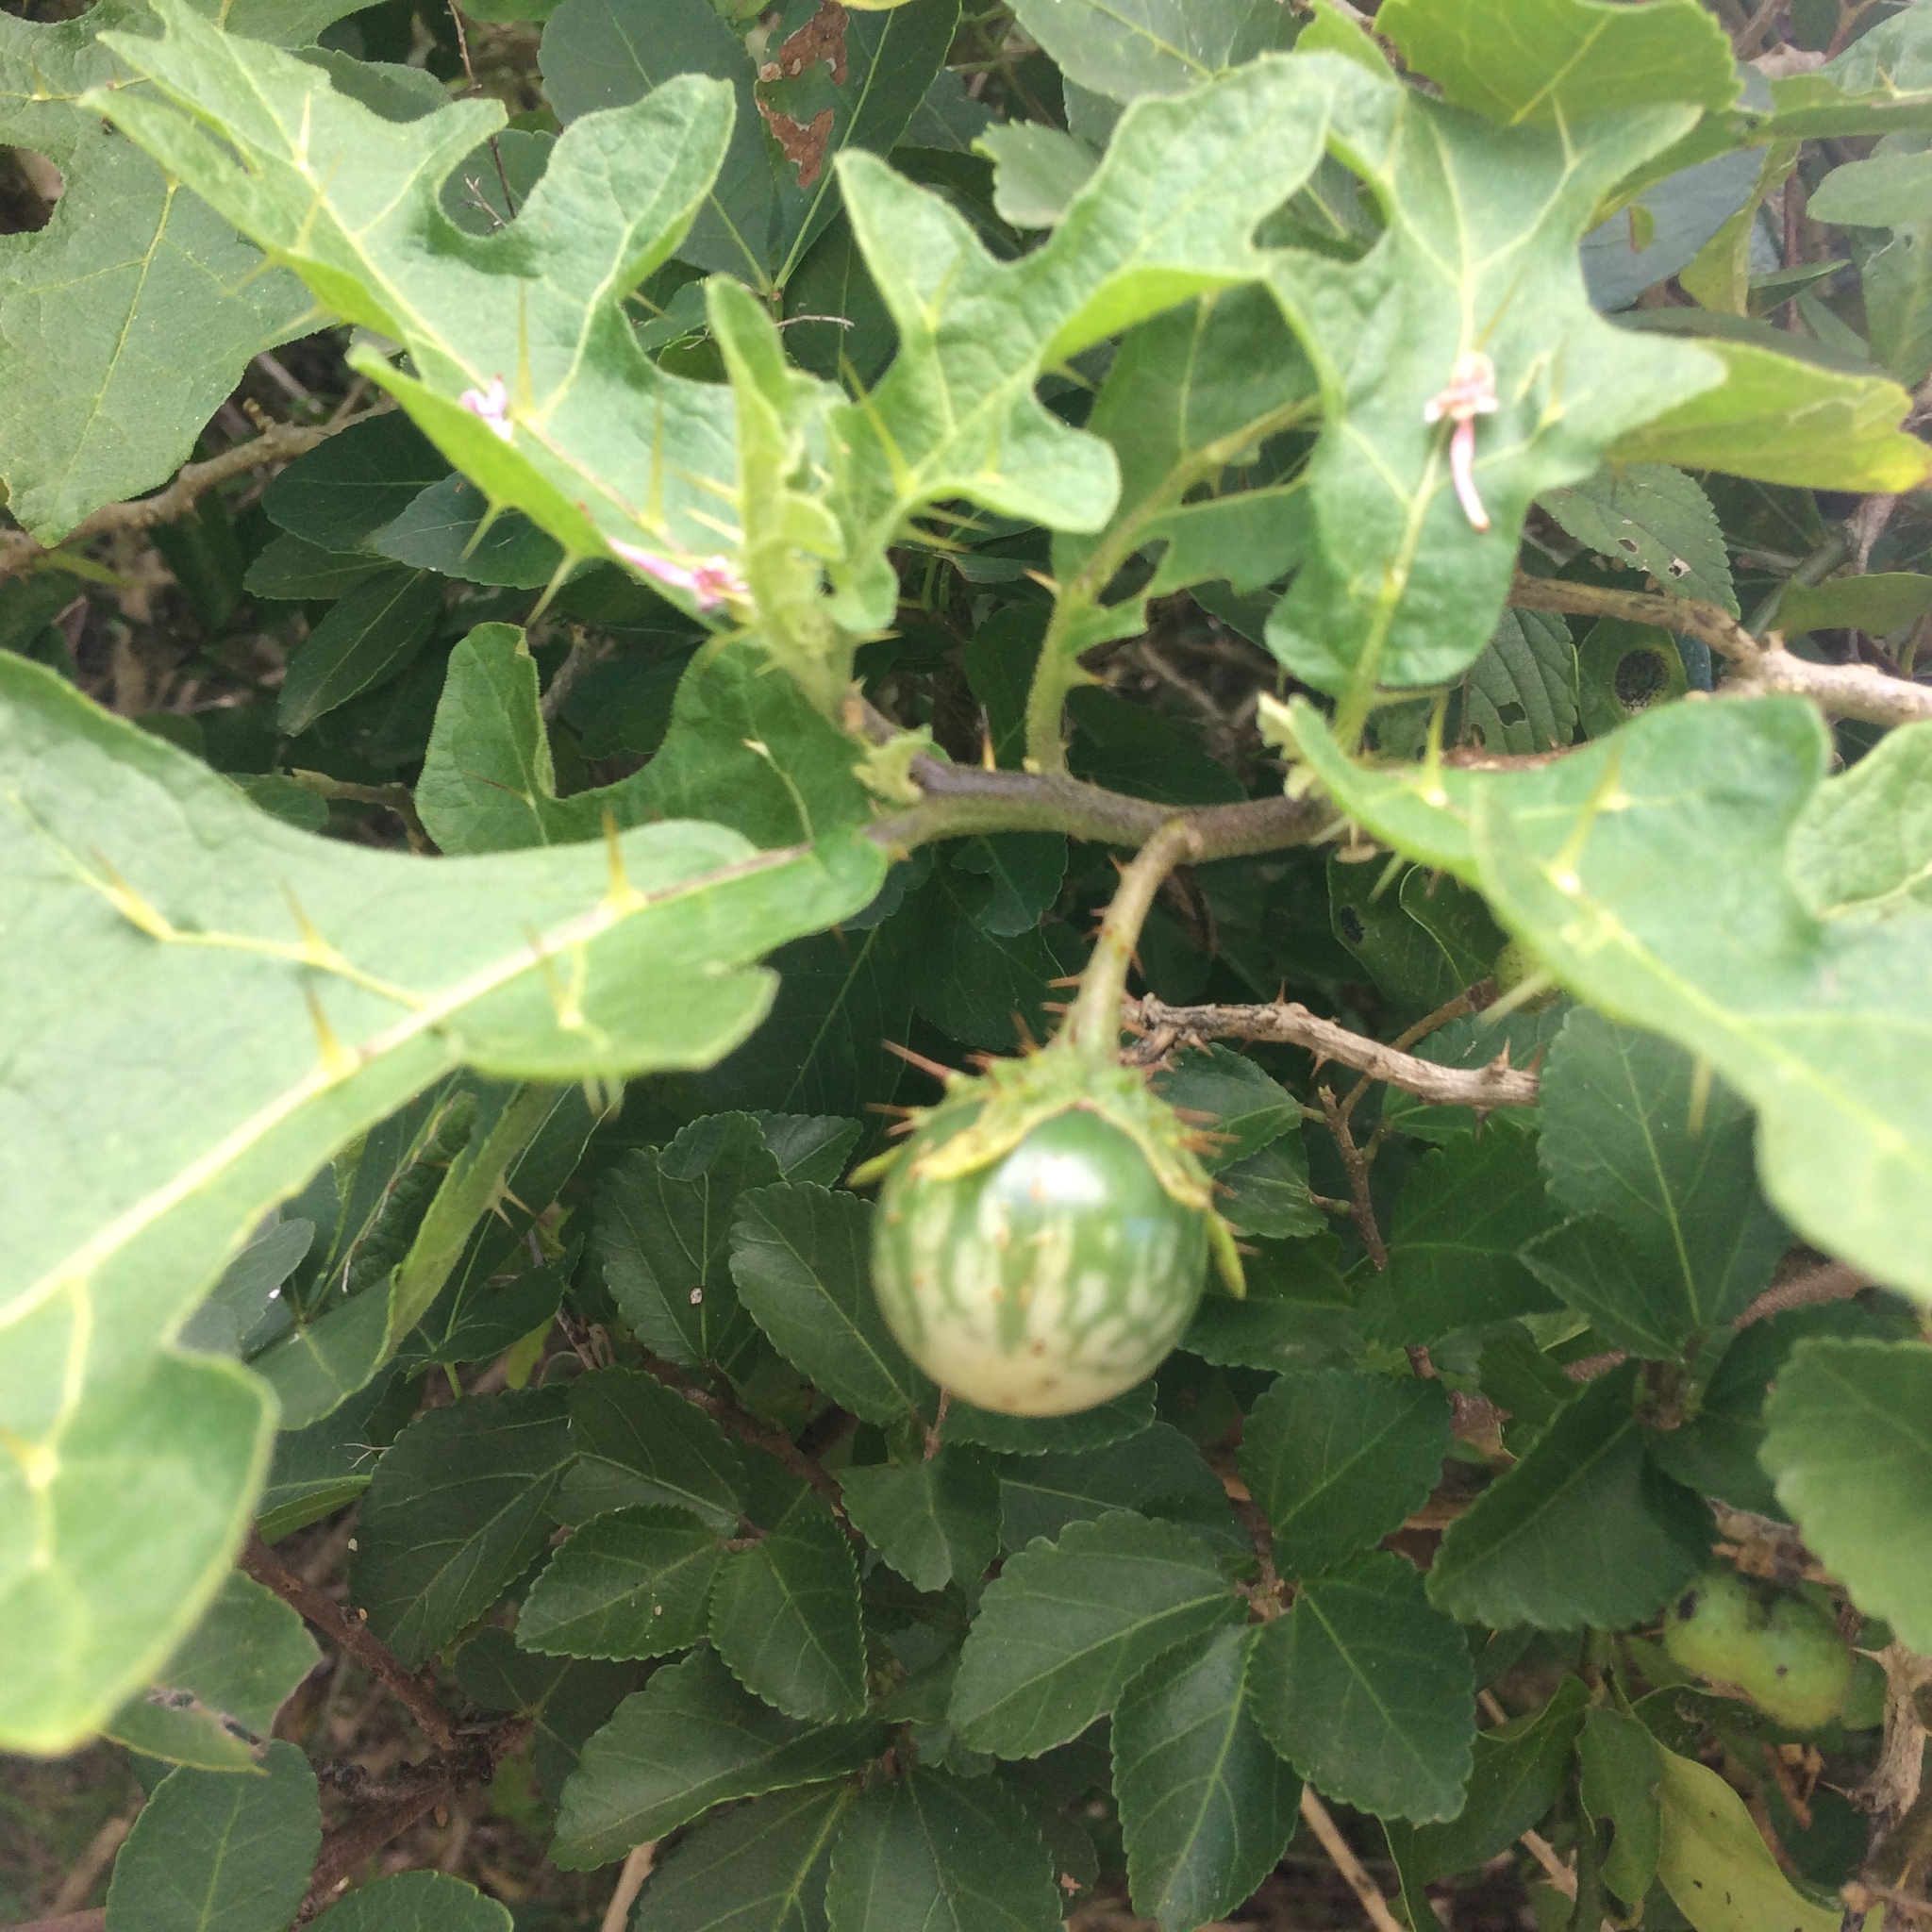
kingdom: Plantae
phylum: Tracheophyta
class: Magnoliopsida
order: Solanales
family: Solanaceae
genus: Solanum
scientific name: Solanum linnaeanum
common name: Nightshade
